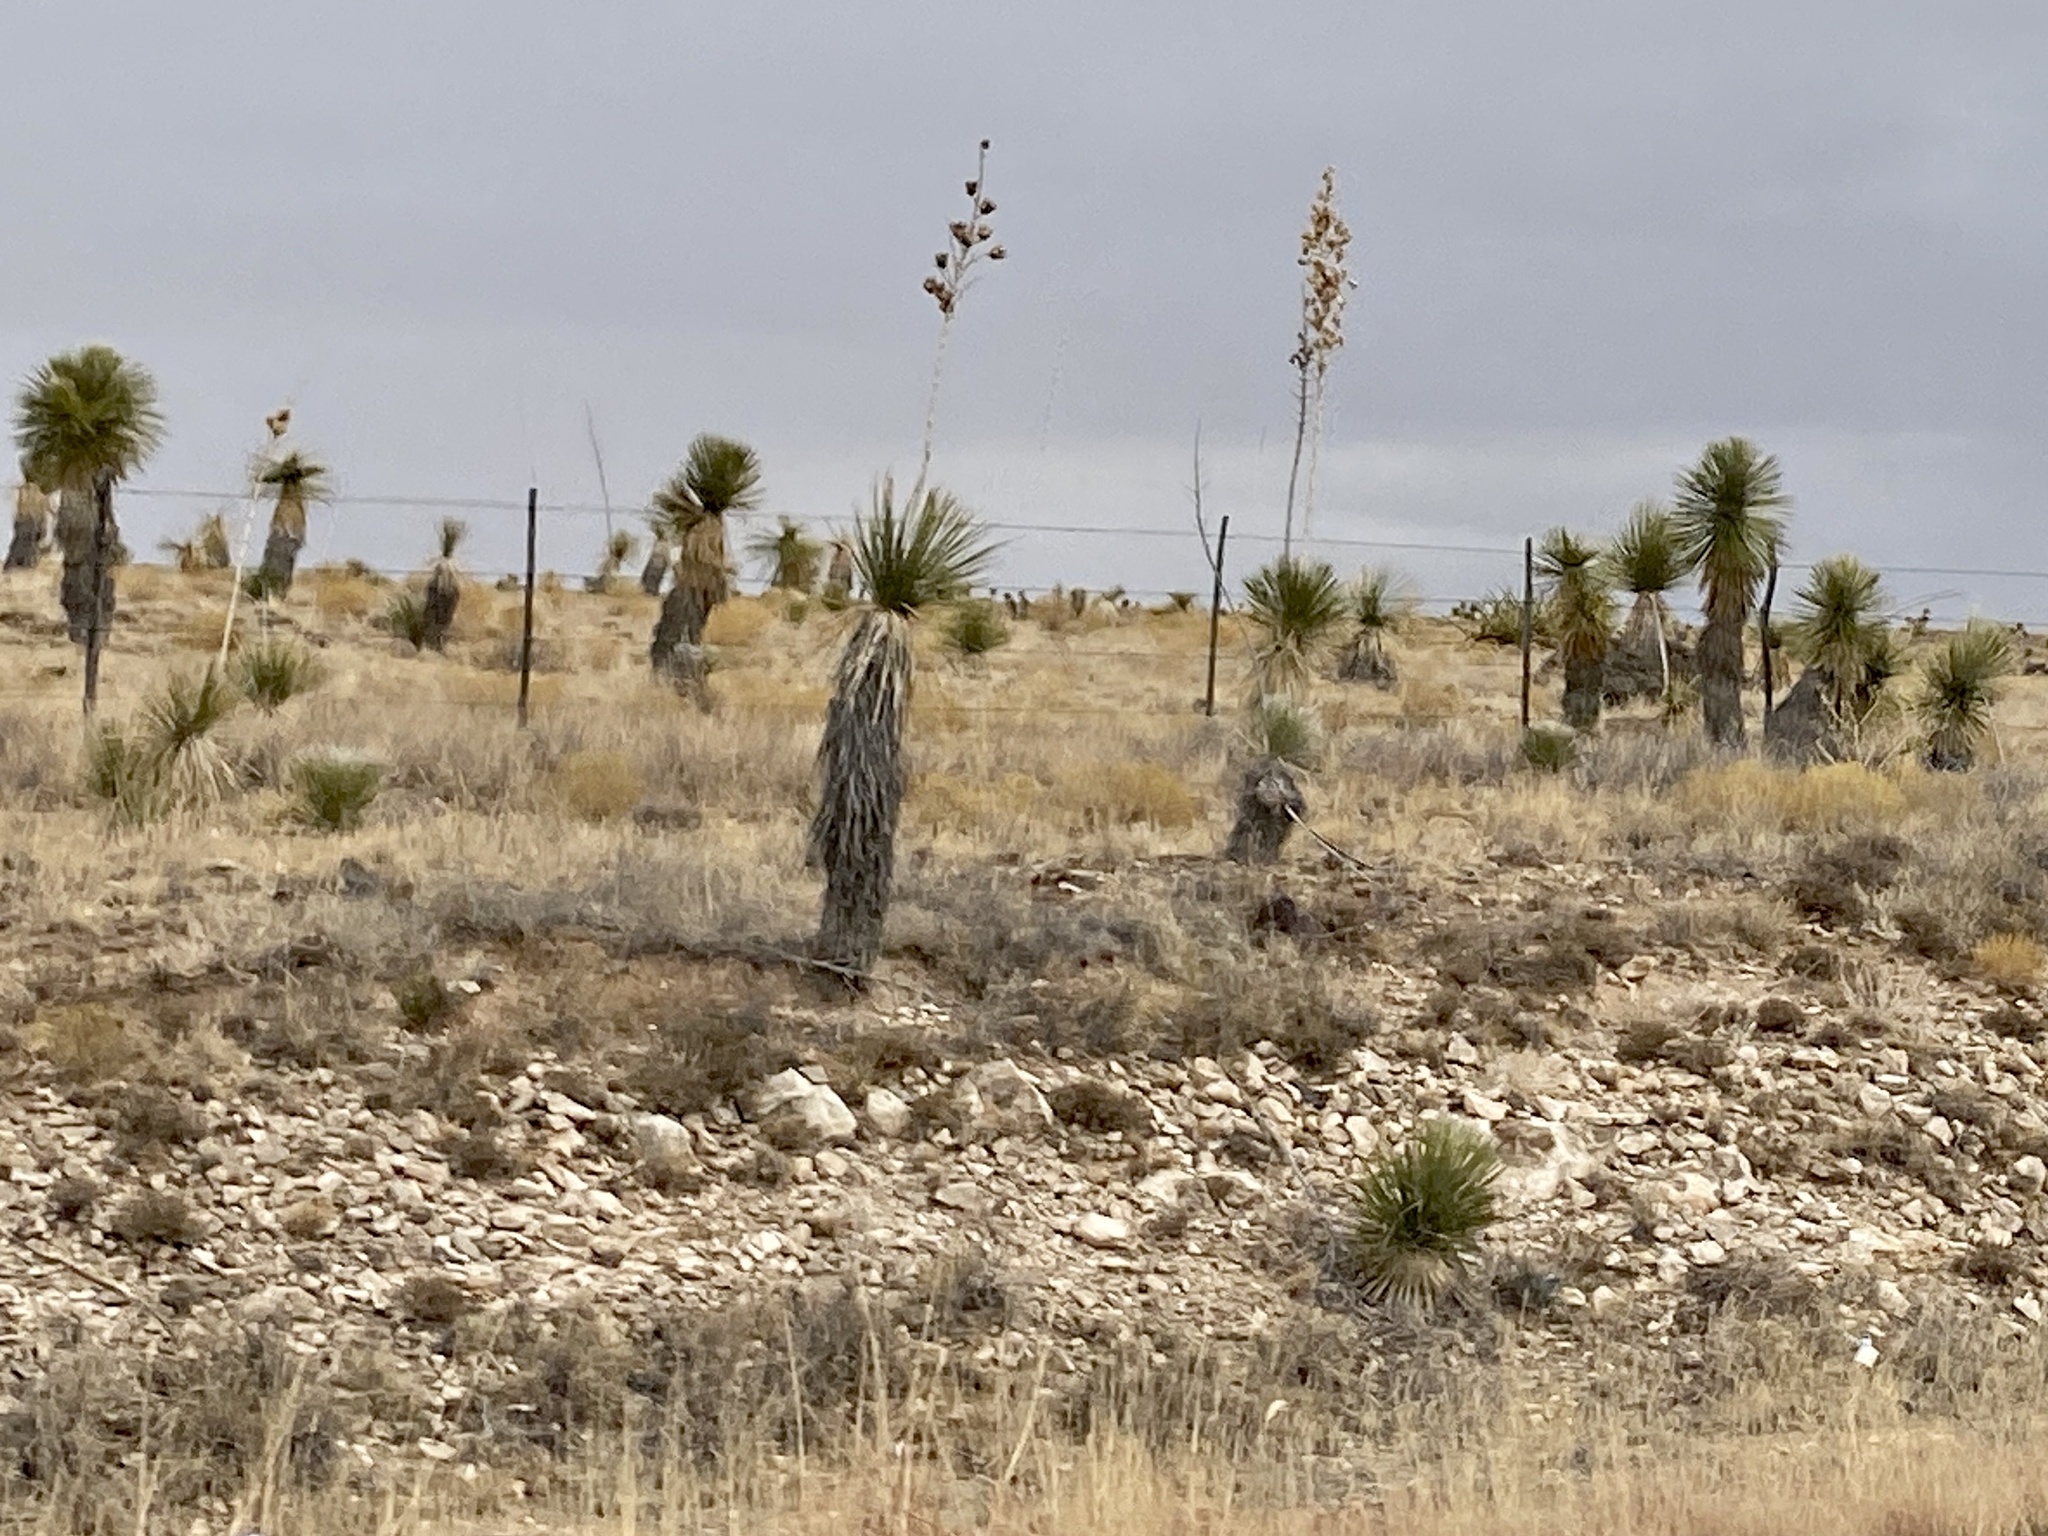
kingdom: Plantae
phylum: Tracheophyta
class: Liliopsida
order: Asparagales
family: Asparagaceae
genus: Yucca
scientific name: Yucca elata
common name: Palmella
